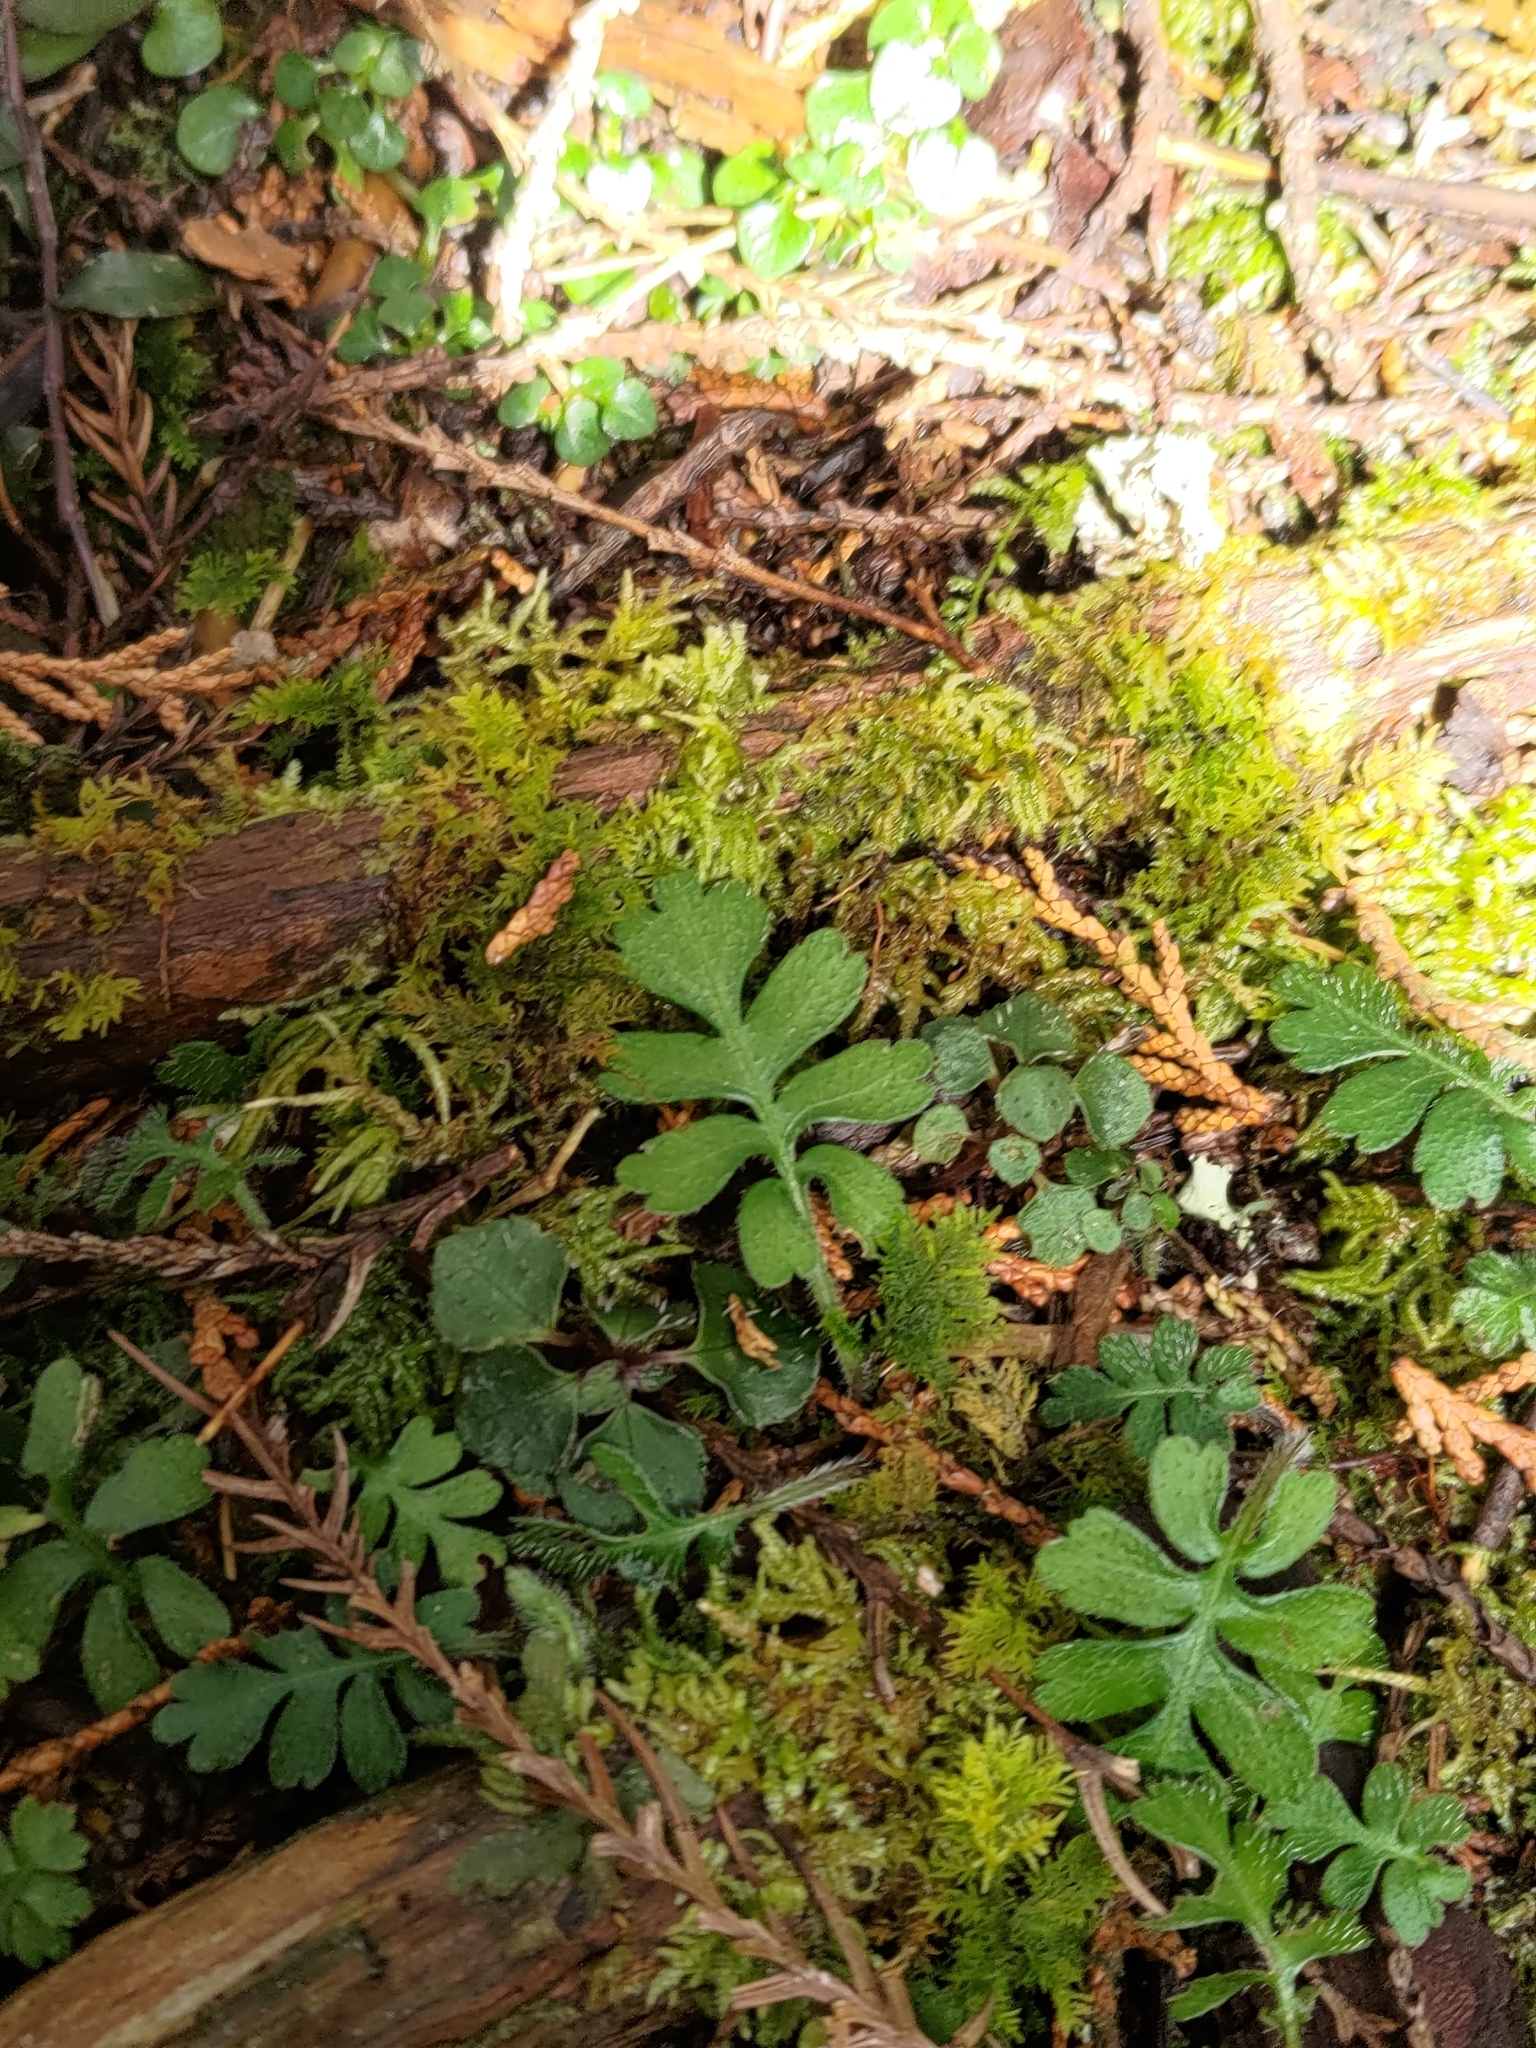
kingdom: Plantae
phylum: Tracheophyta
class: Magnoliopsida
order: Lamiales
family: Plantaginaceae
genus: Ellisiophyllum
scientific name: Ellisiophyllum pinnatum
